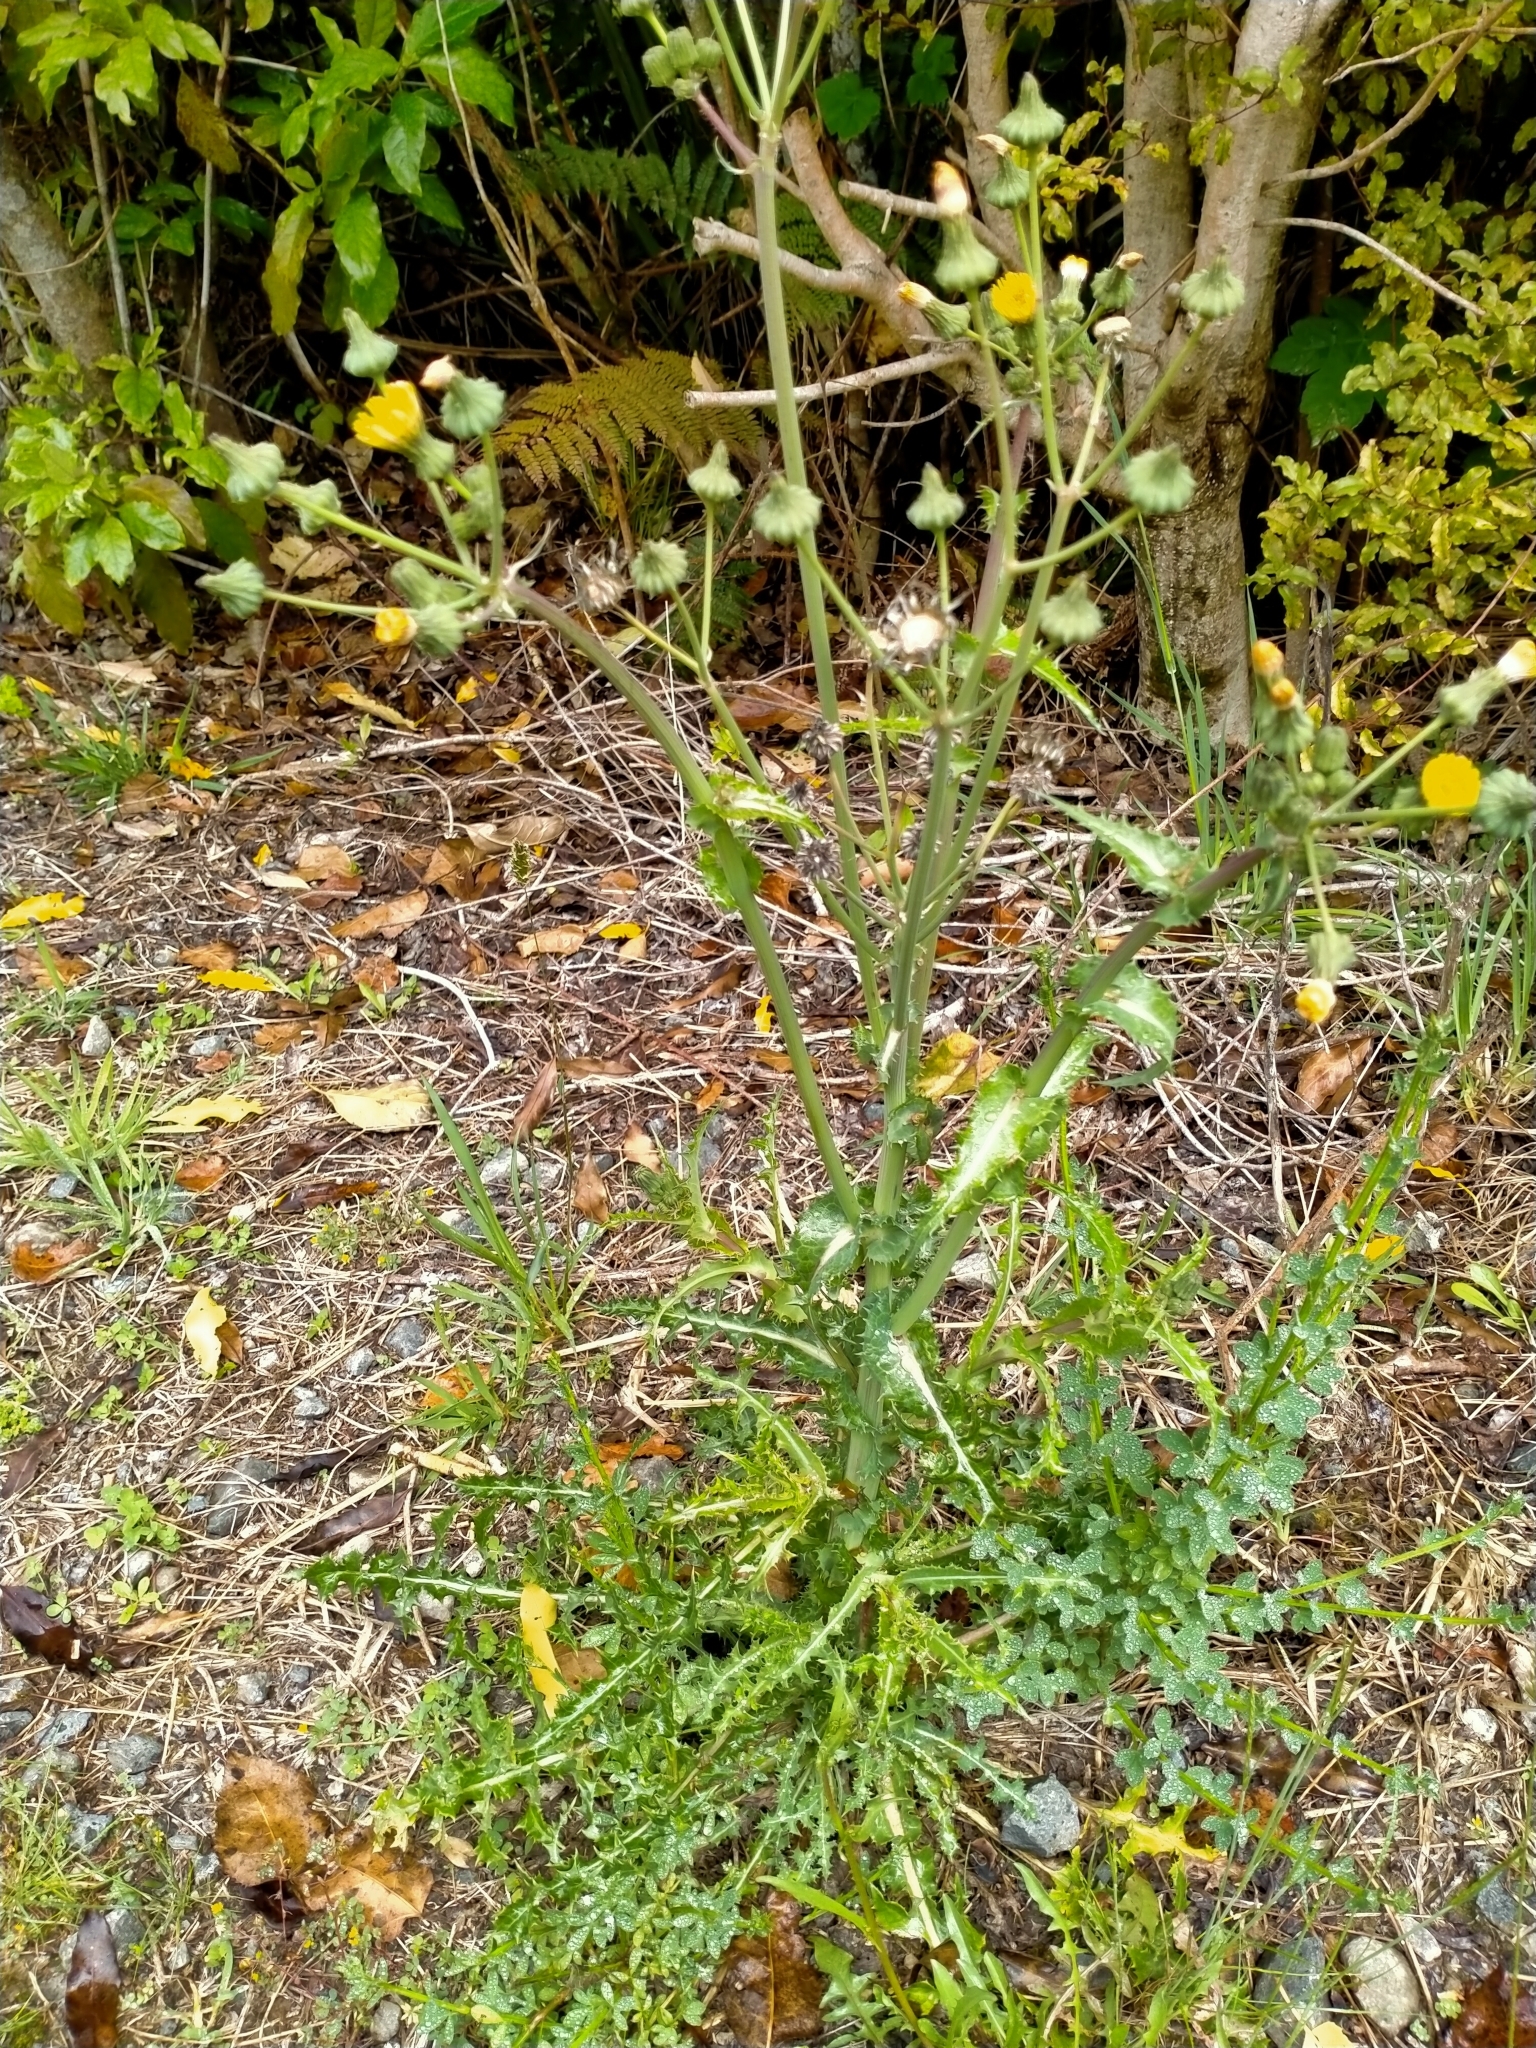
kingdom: Plantae
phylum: Tracheophyta
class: Magnoliopsida
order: Asterales
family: Asteraceae
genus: Sonchus
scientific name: Sonchus asper
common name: Prickly sow-thistle
